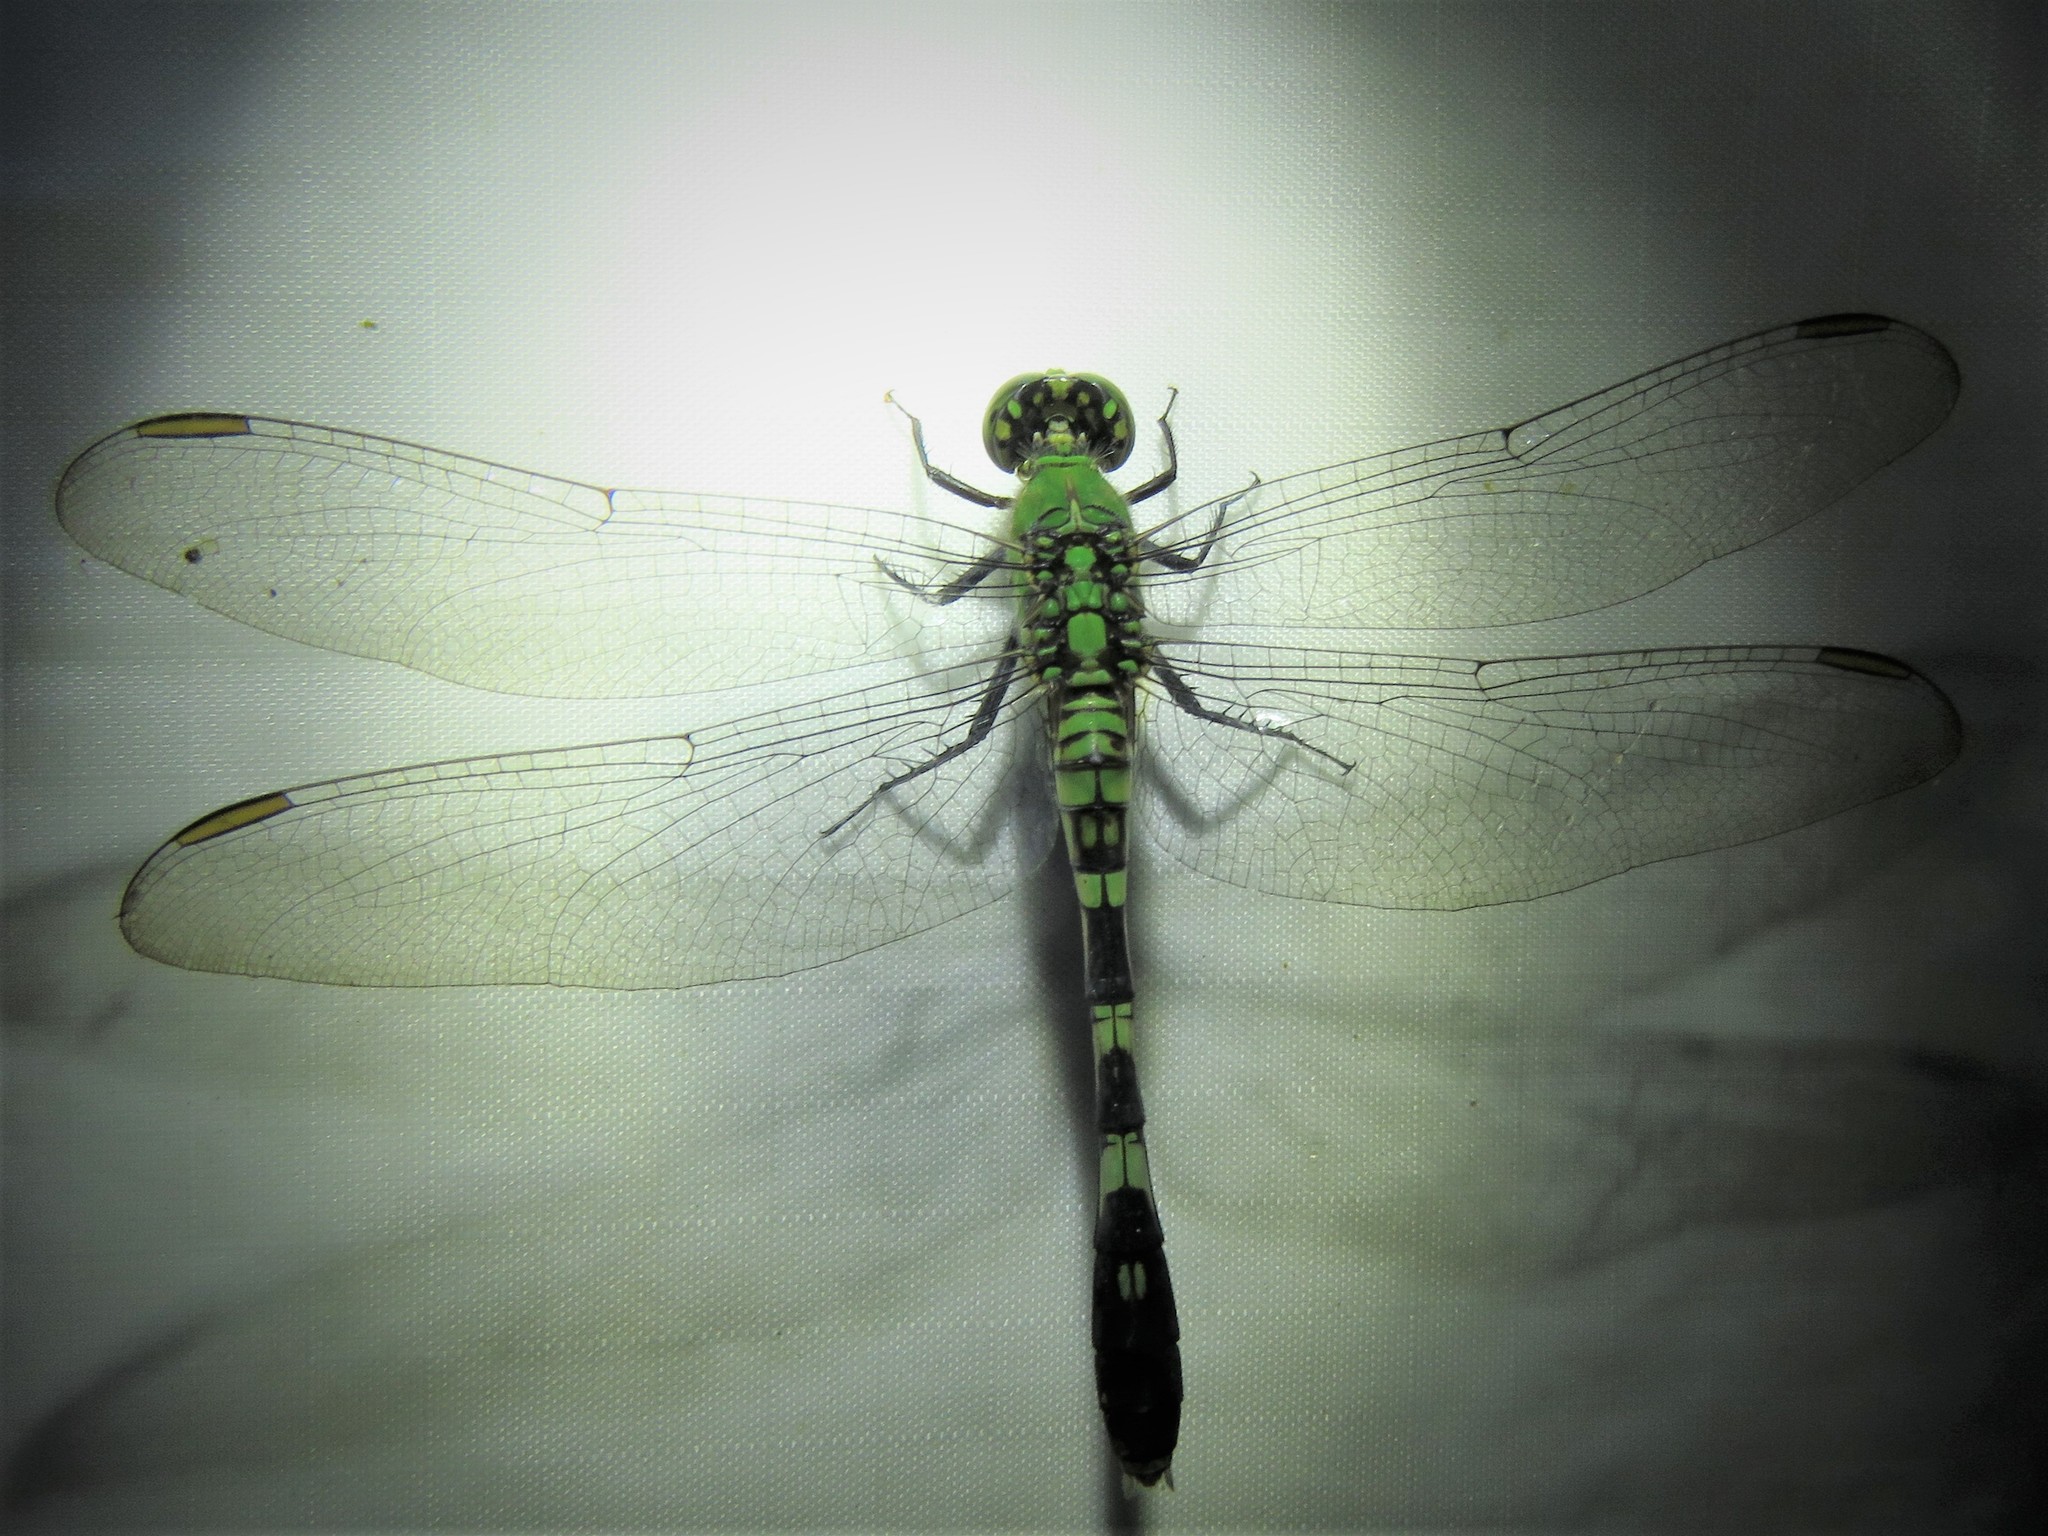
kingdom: Animalia
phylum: Arthropoda
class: Insecta
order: Odonata
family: Libellulidae
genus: Erythemis
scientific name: Erythemis simplicicollis
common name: Eastern pondhawk
